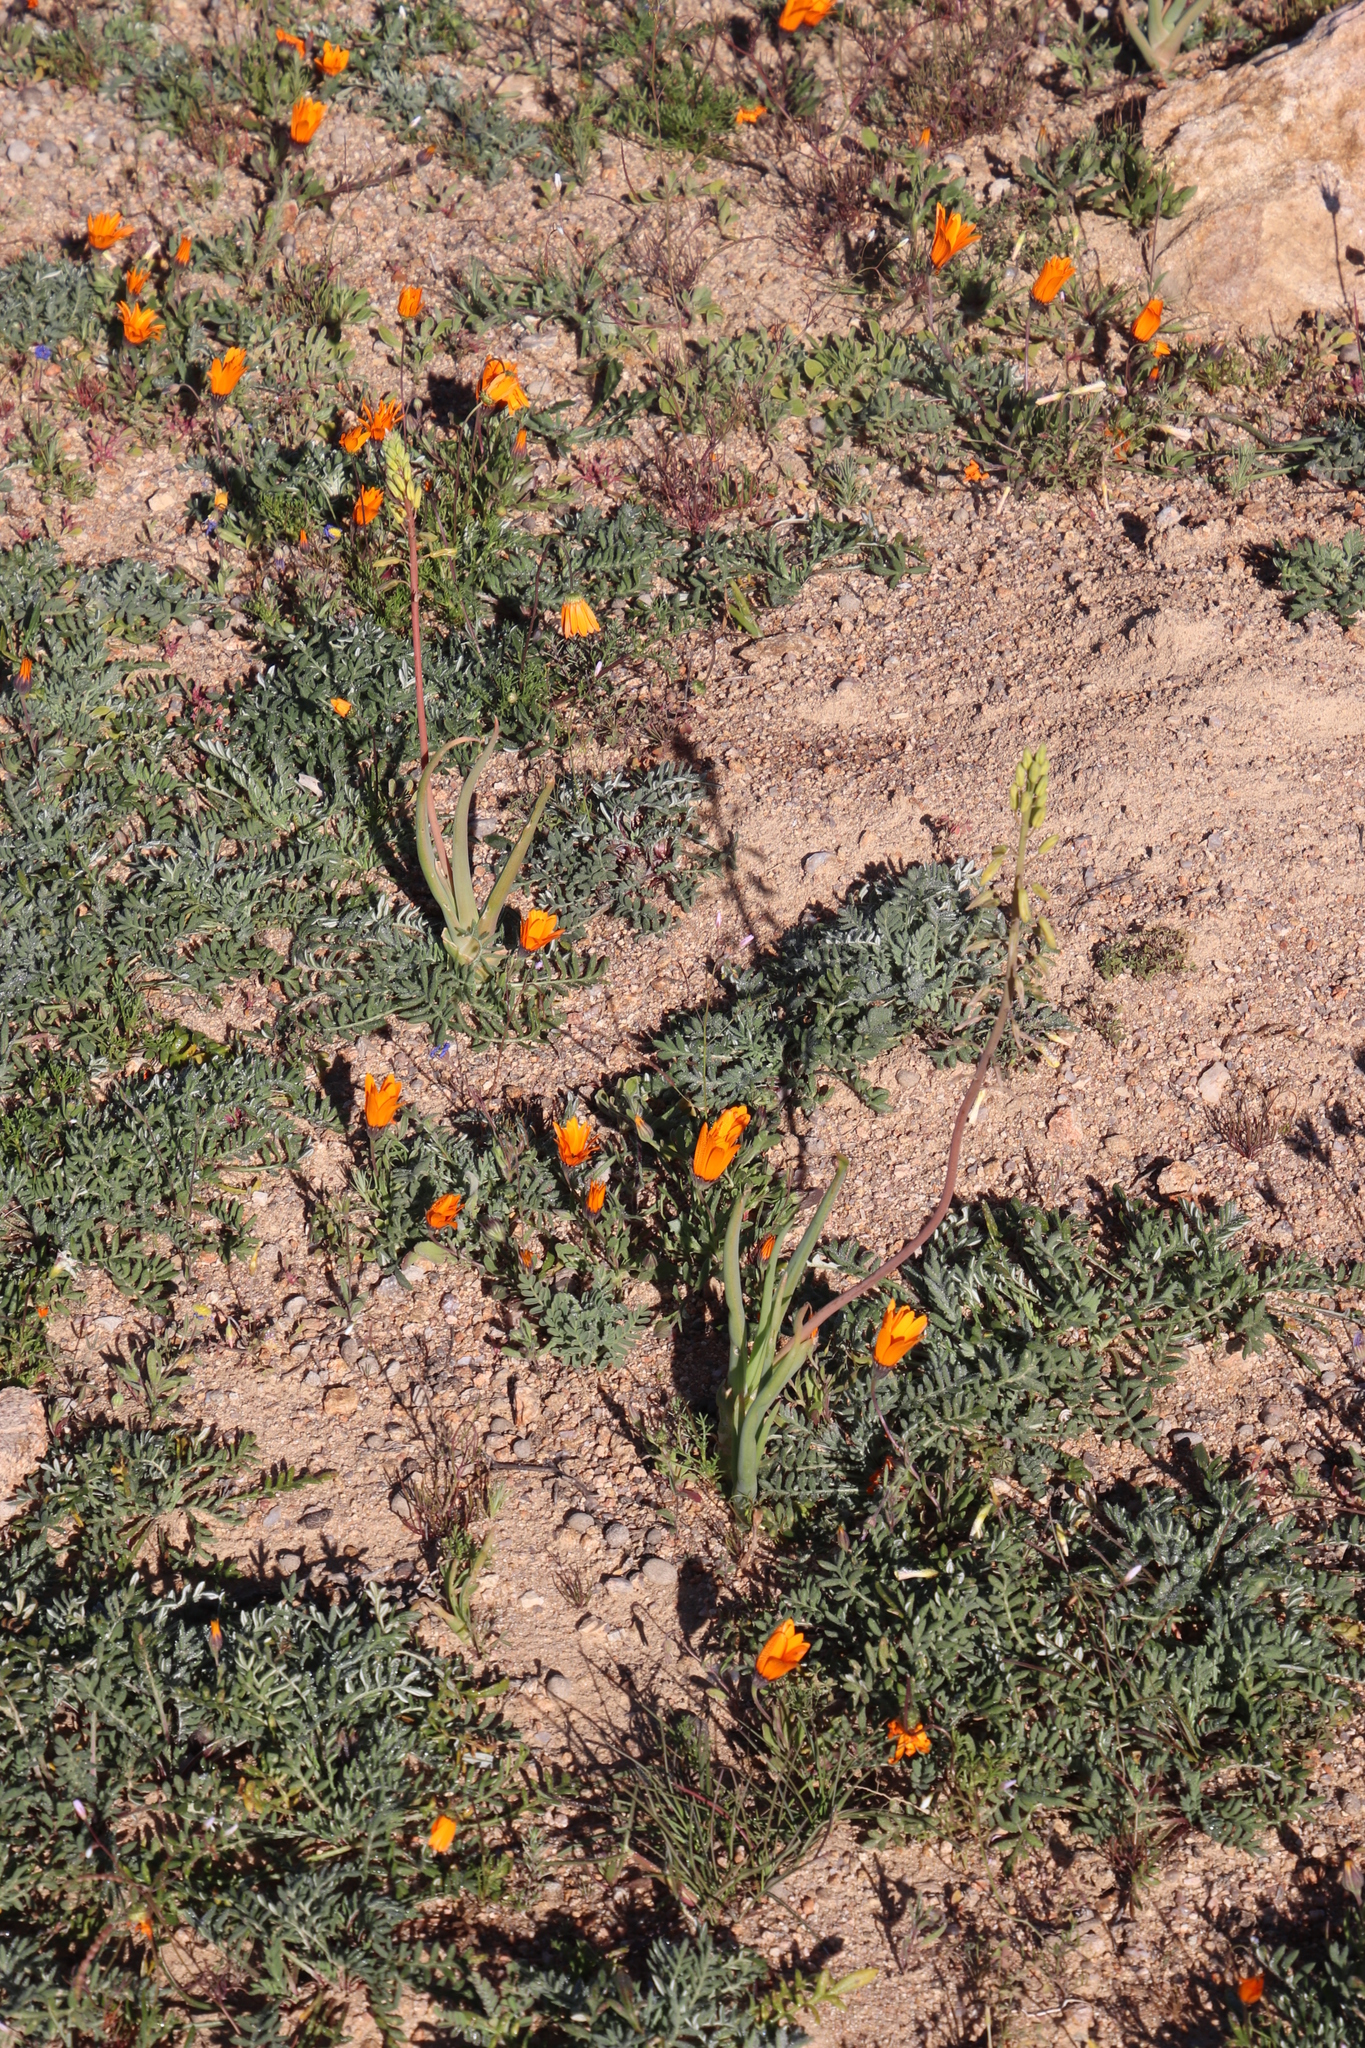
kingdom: Plantae
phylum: Tracheophyta
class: Liliopsida
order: Asparagales
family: Asphodelaceae
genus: Bulbine
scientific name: Bulbine praemorsa
